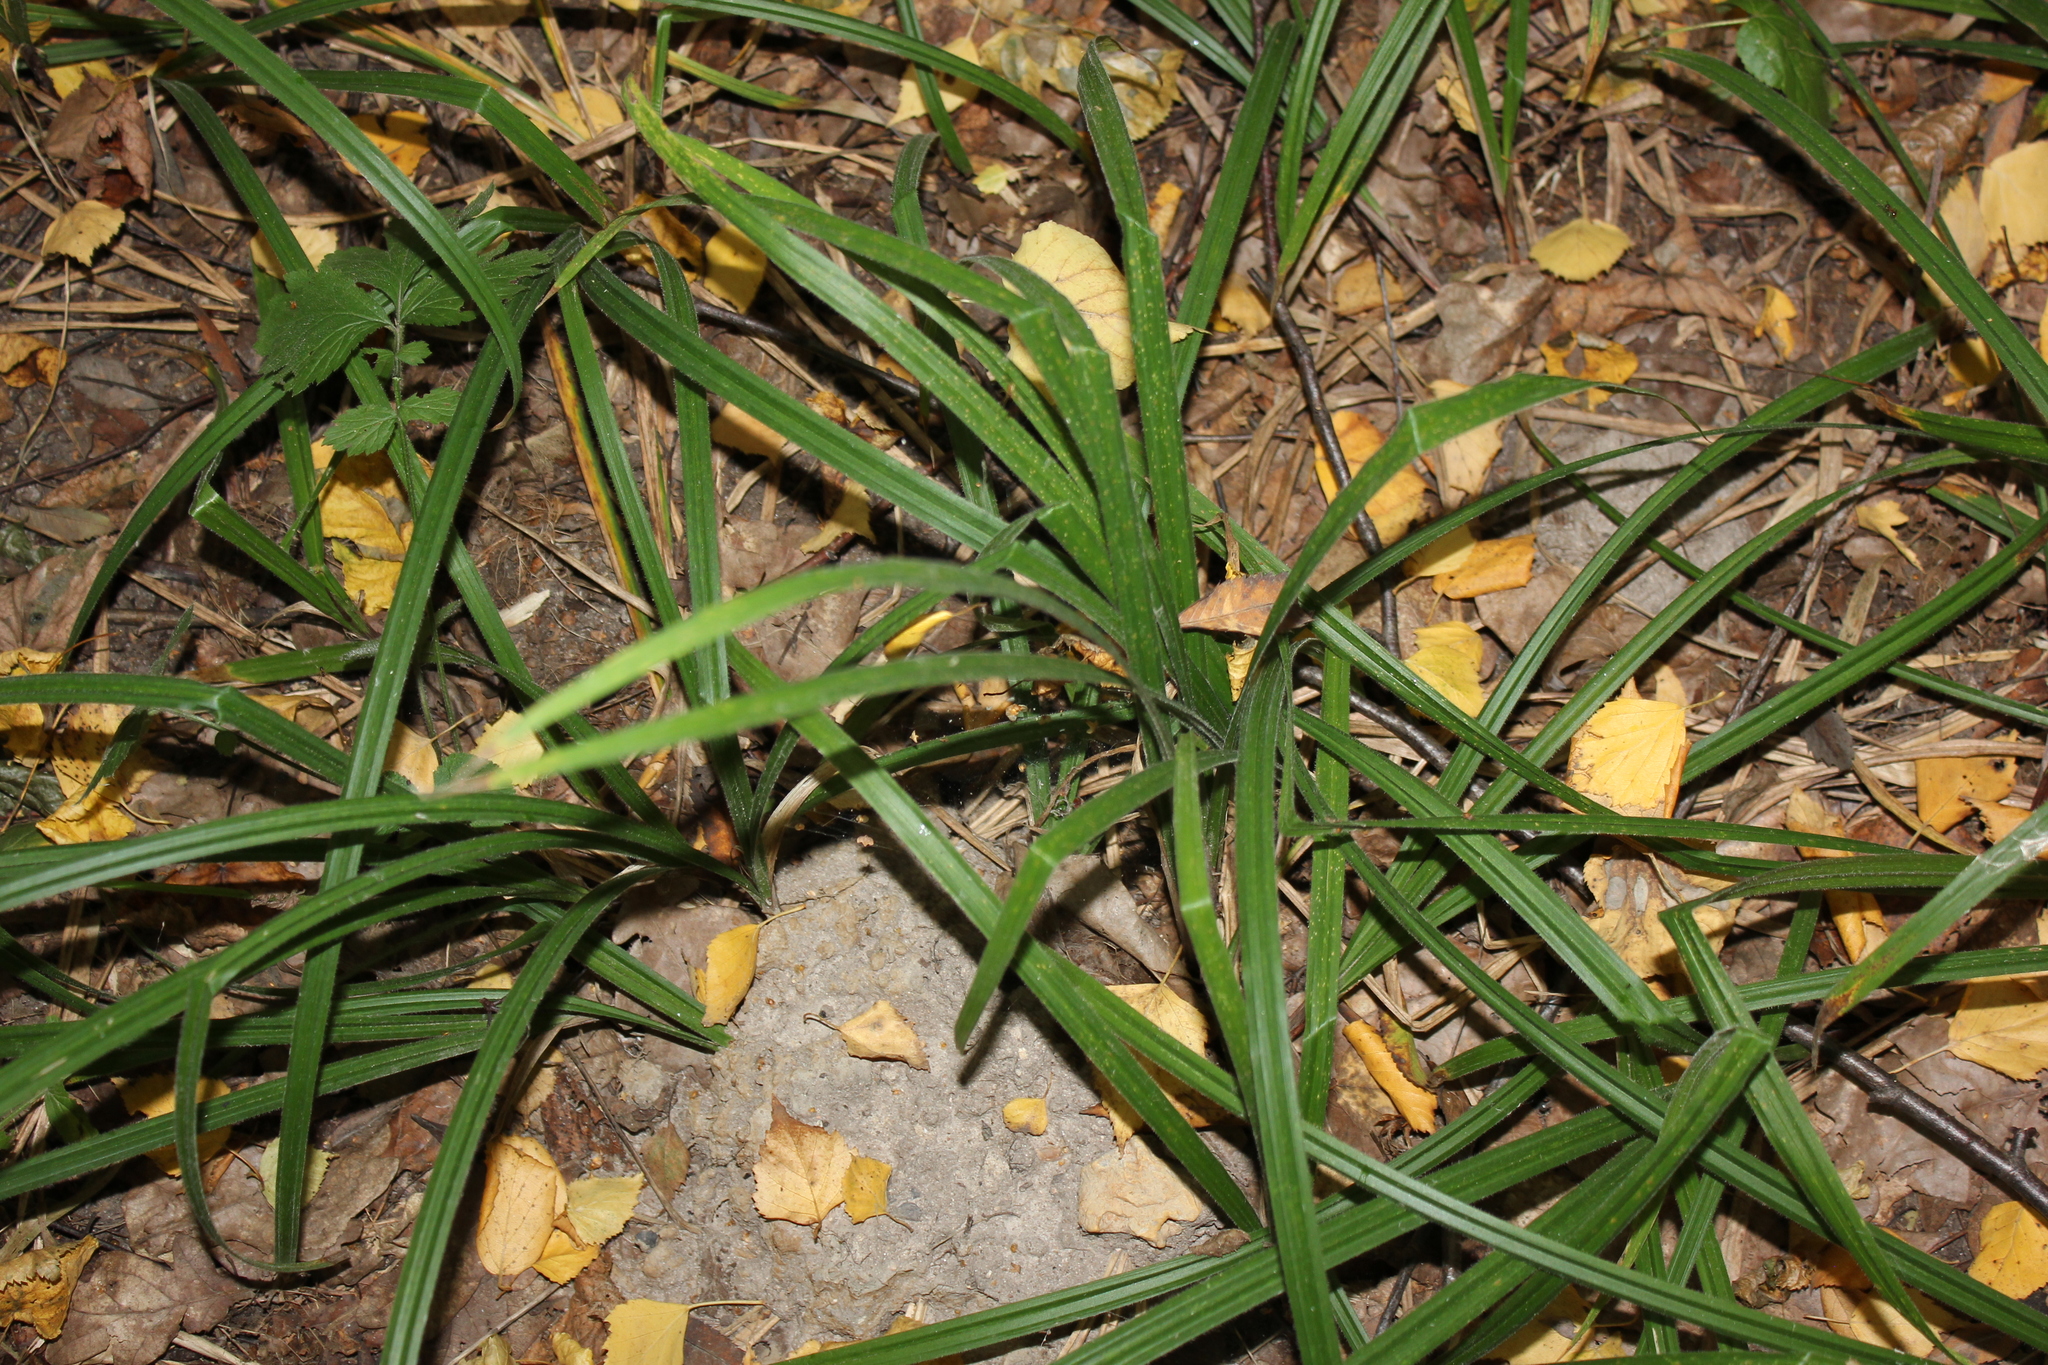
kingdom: Plantae
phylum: Tracheophyta
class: Liliopsida
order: Poales
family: Cyperaceae
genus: Carex
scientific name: Carex pilosa
